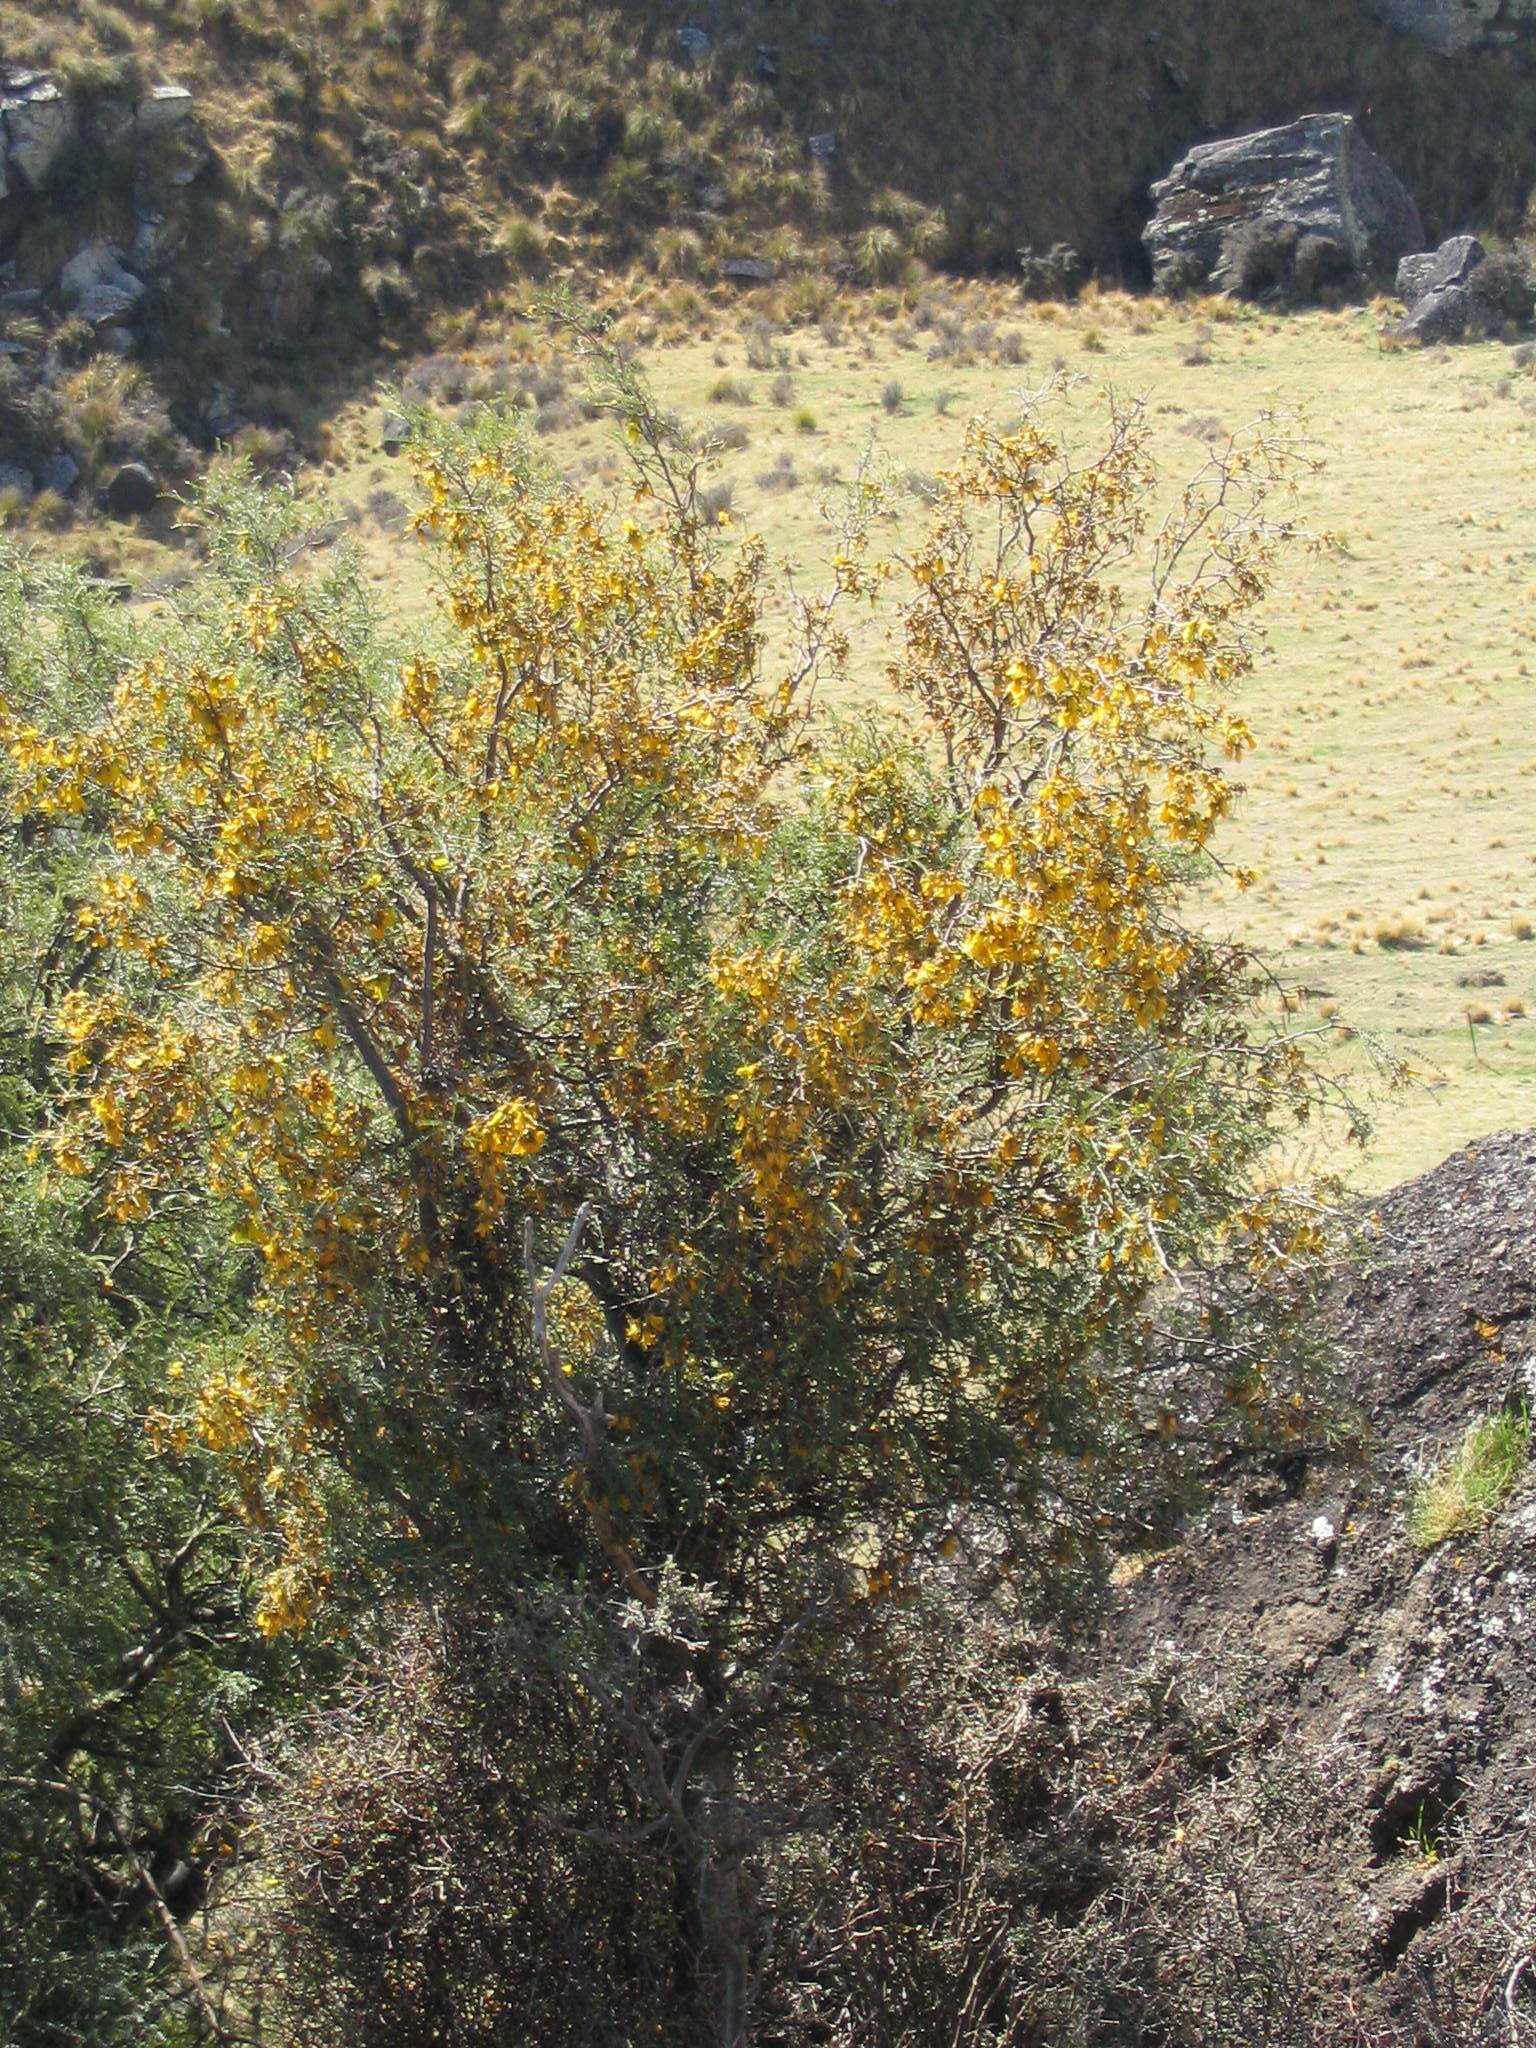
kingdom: Plantae
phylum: Tracheophyta
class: Magnoliopsida
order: Fabales
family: Fabaceae
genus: Sophora
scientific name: Sophora microphylla
